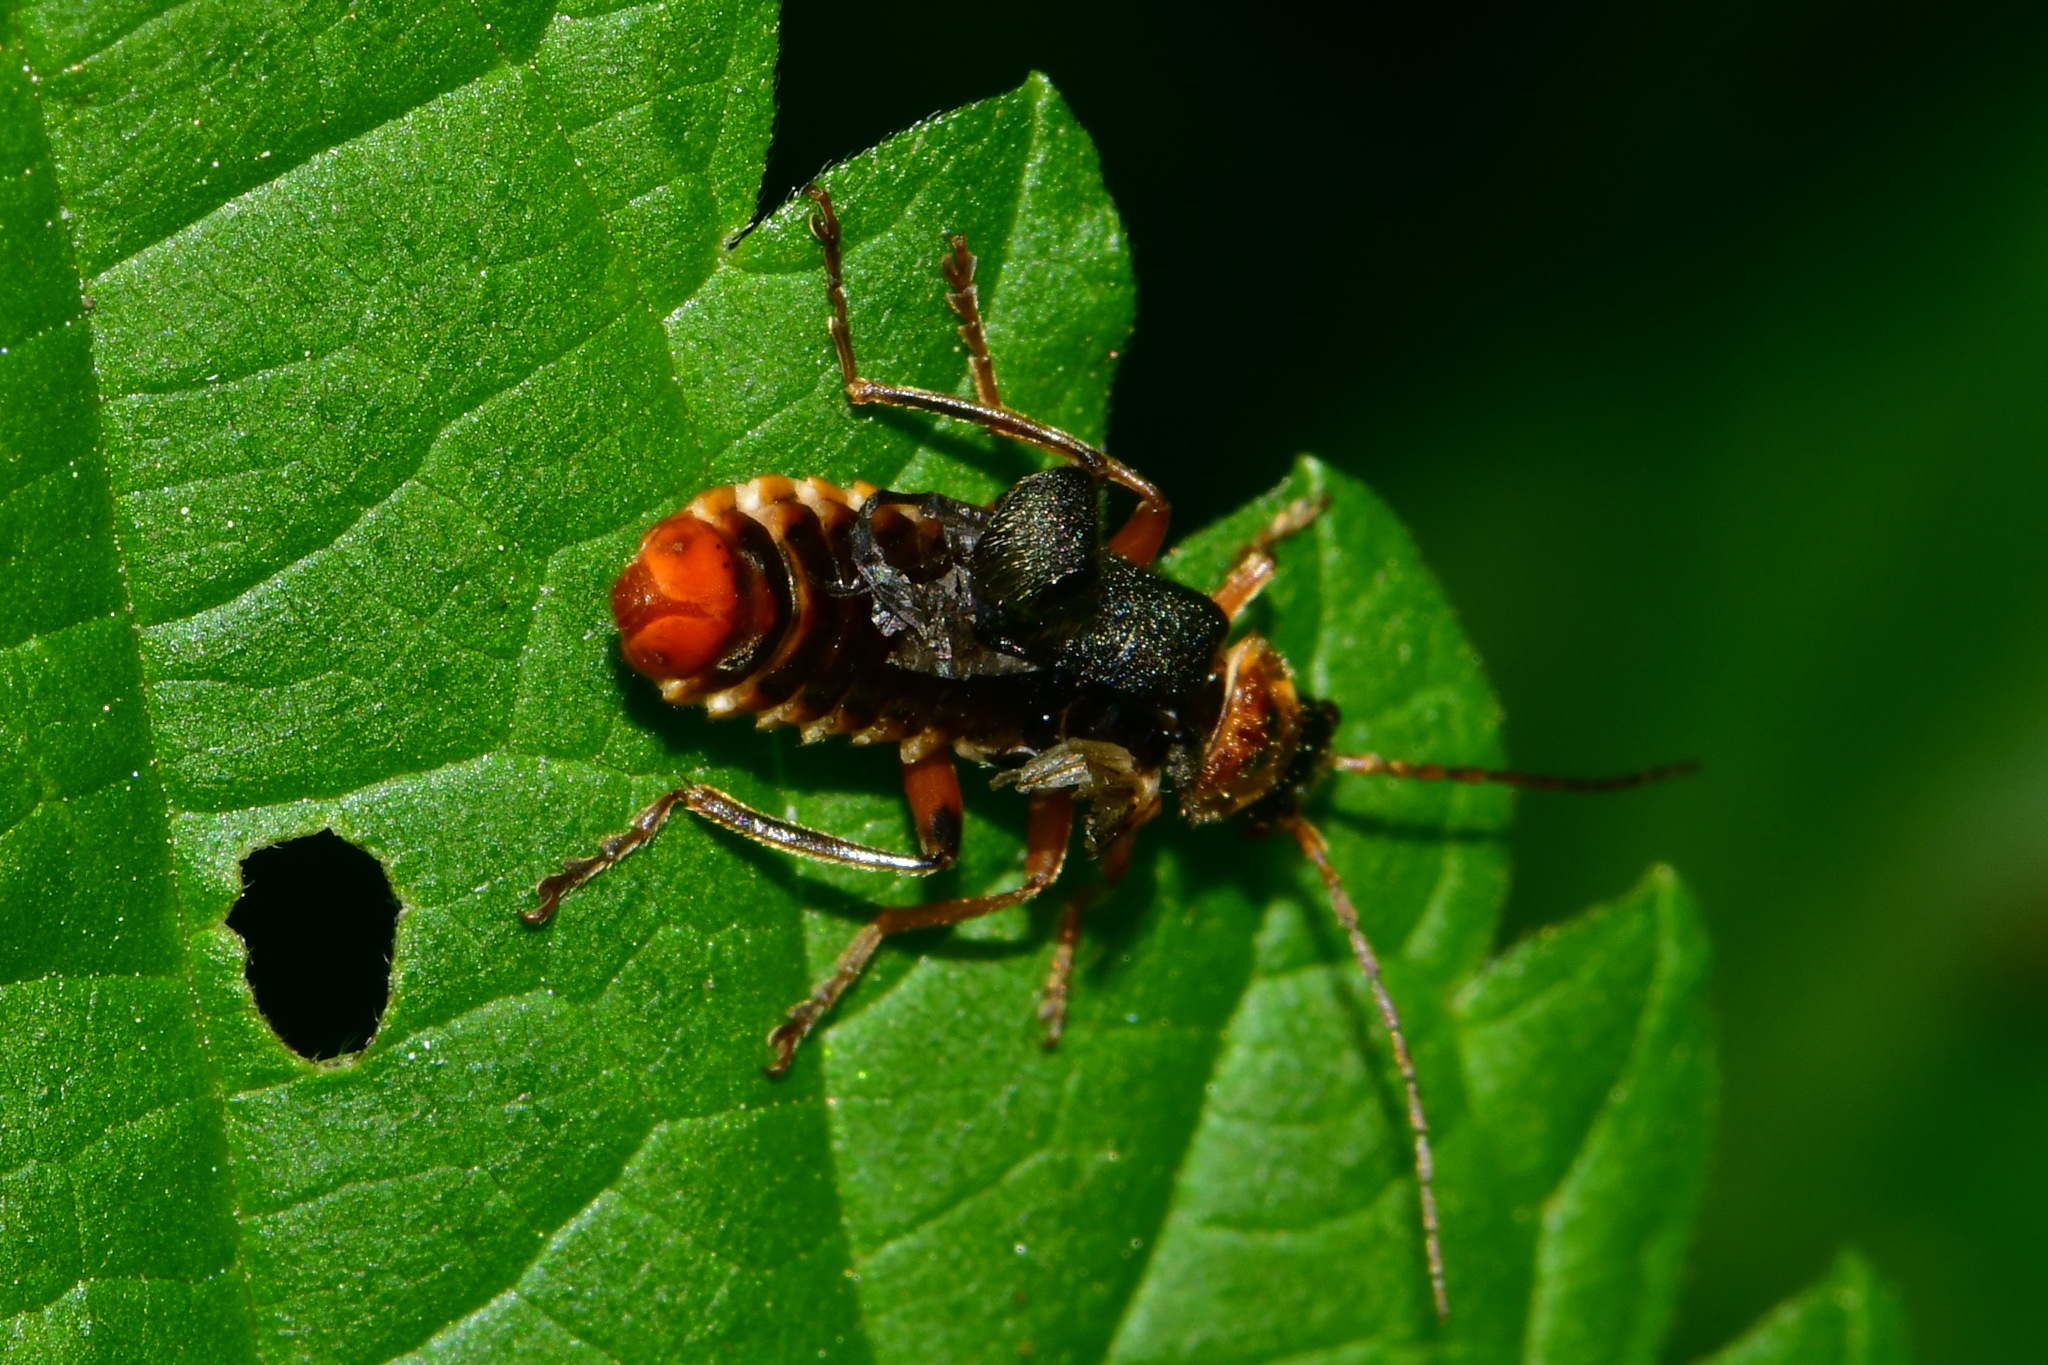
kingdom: Animalia
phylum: Arthropoda
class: Insecta
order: Coleoptera
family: Cantharidae
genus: Cantharis
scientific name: Cantharis nigricans
